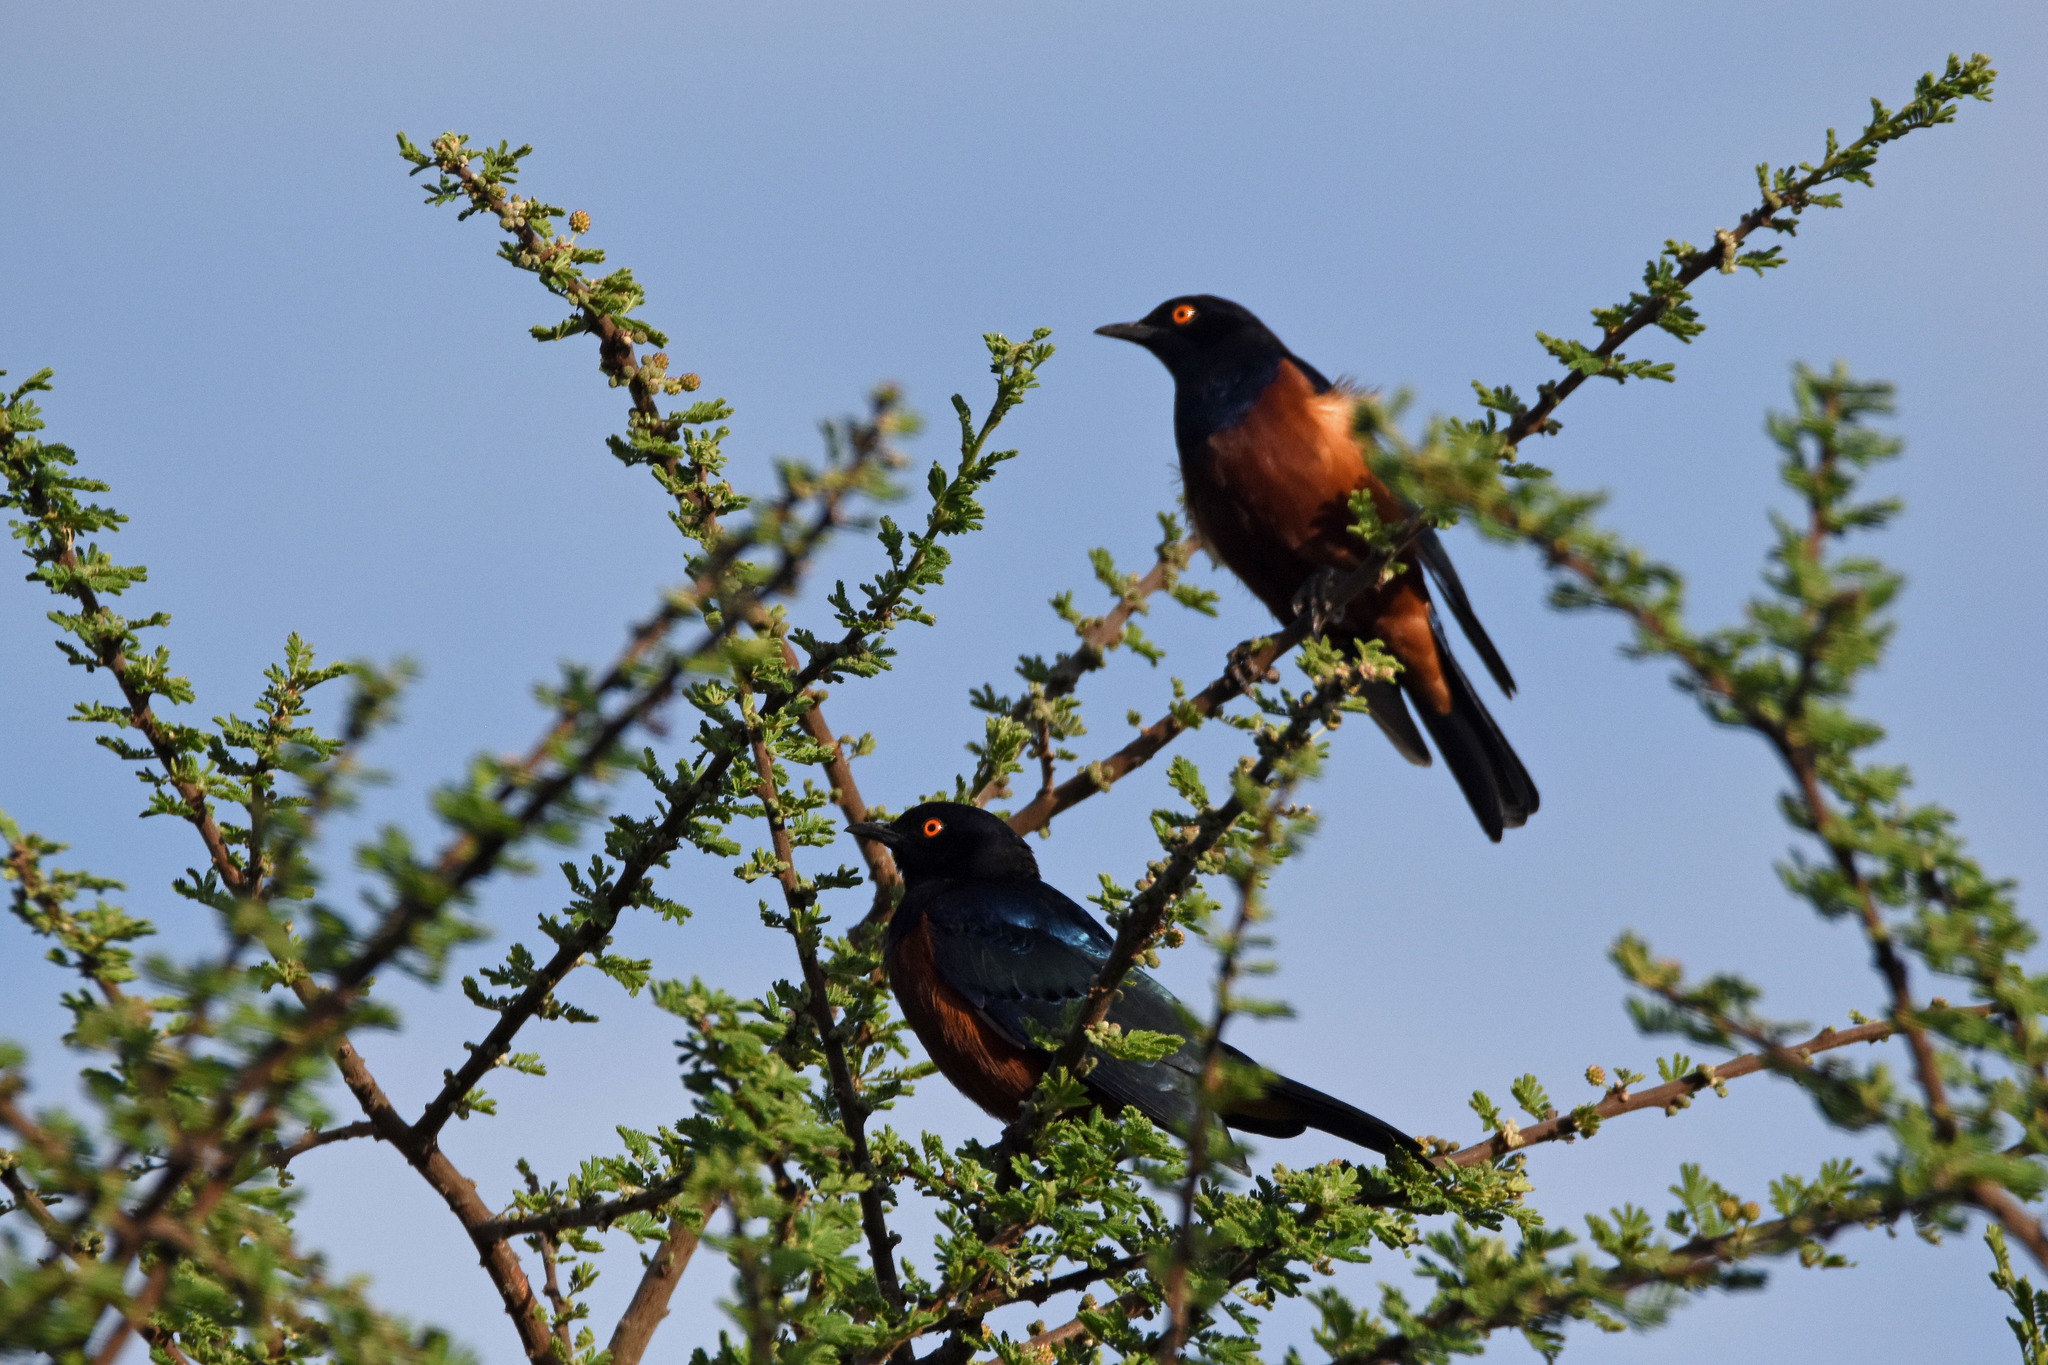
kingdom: Animalia
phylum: Chordata
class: Aves
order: Passeriformes
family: Sturnidae
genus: Lamprotornis
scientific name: Lamprotornis shelleyi
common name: Shelley's starling
